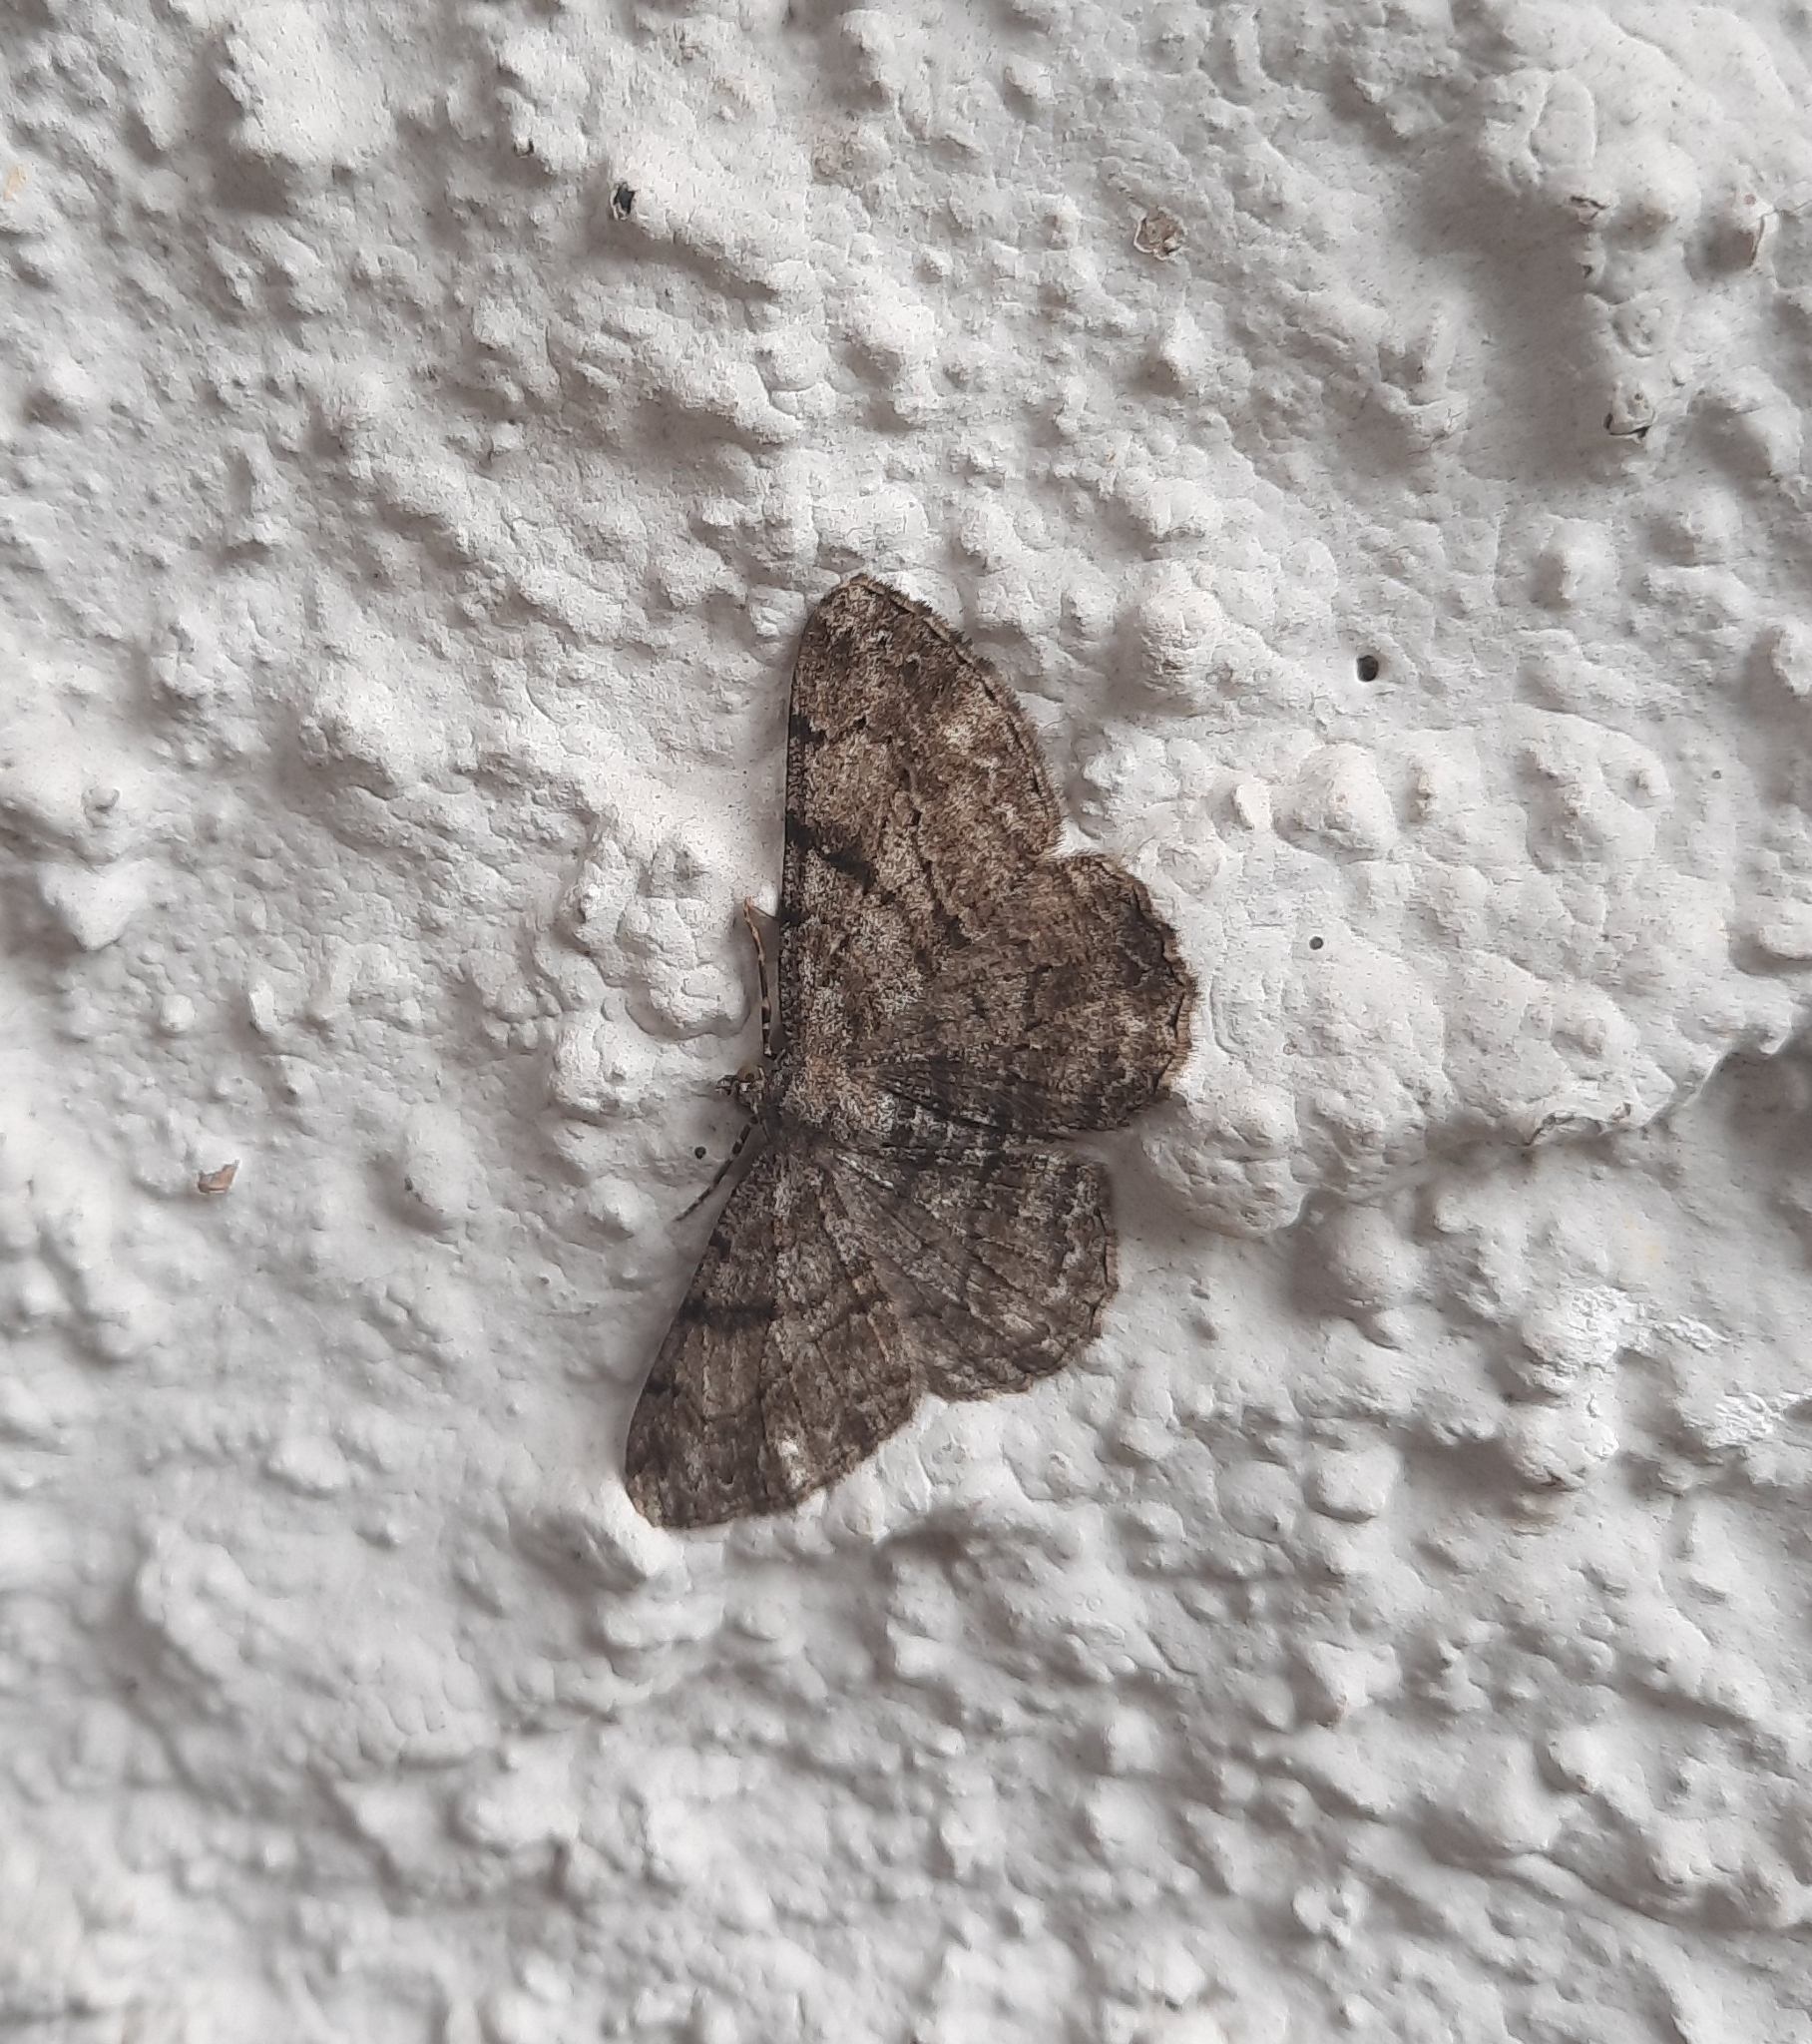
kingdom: Animalia
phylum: Arthropoda
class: Insecta
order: Lepidoptera
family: Geometridae
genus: Peribatodes
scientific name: Peribatodes rhomboidaria
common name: Willow beauty
